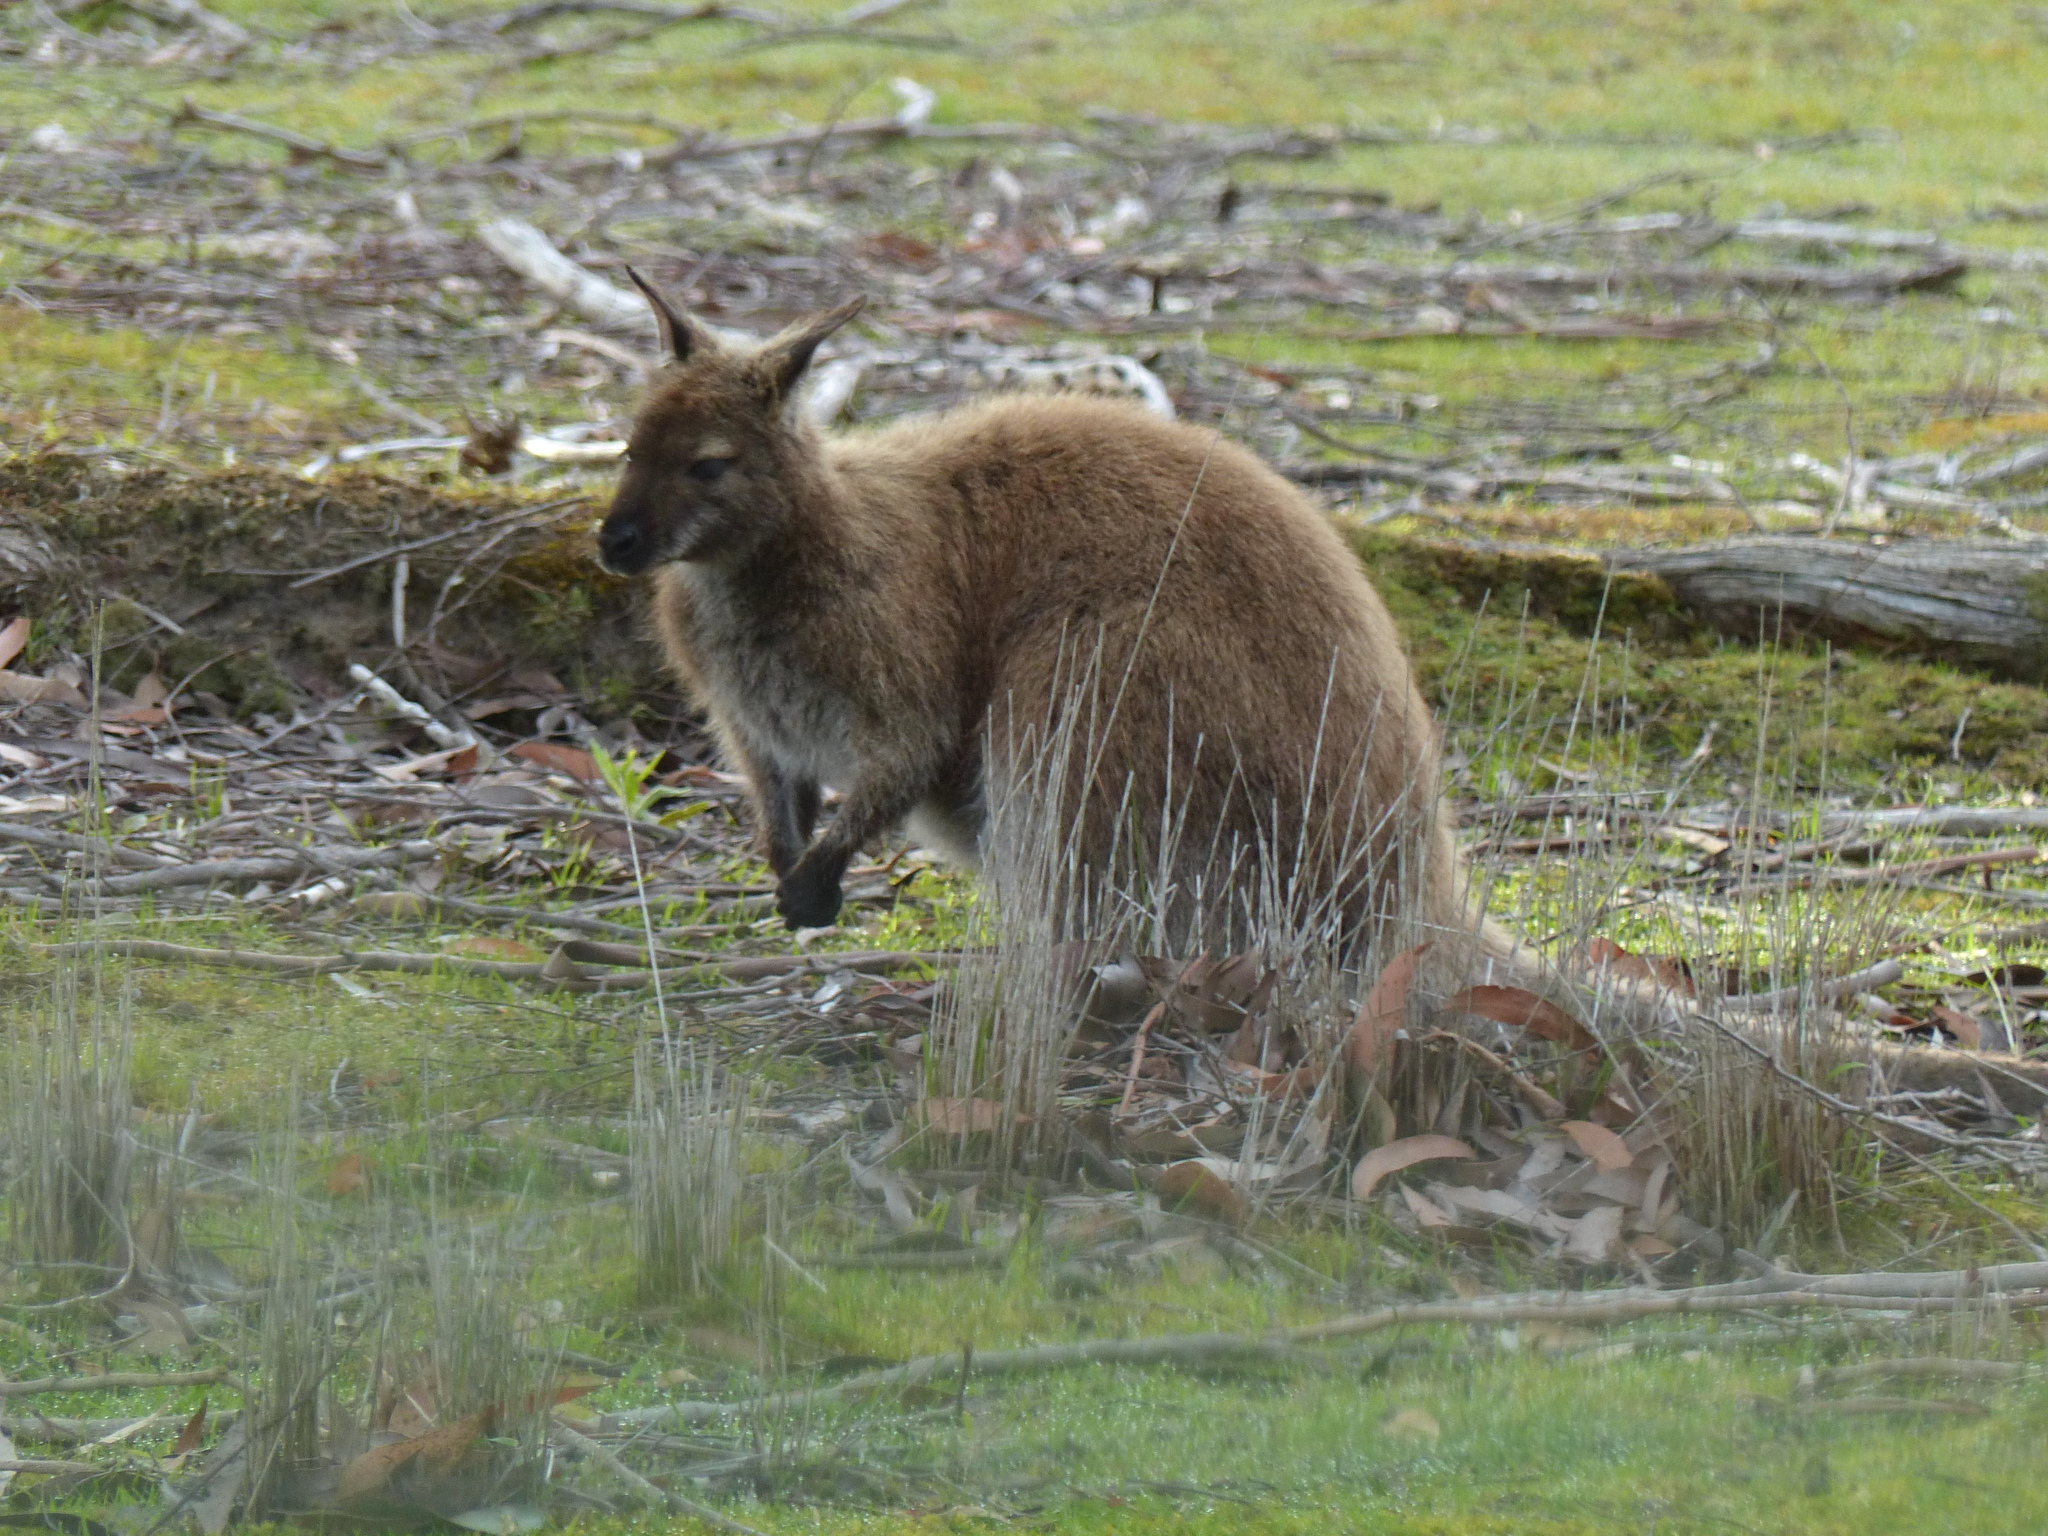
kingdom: Animalia
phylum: Chordata
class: Mammalia
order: Diprotodontia
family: Macropodidae
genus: Notamacropus
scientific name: Notamacropus rufogriseus
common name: Red-necked wallaby
